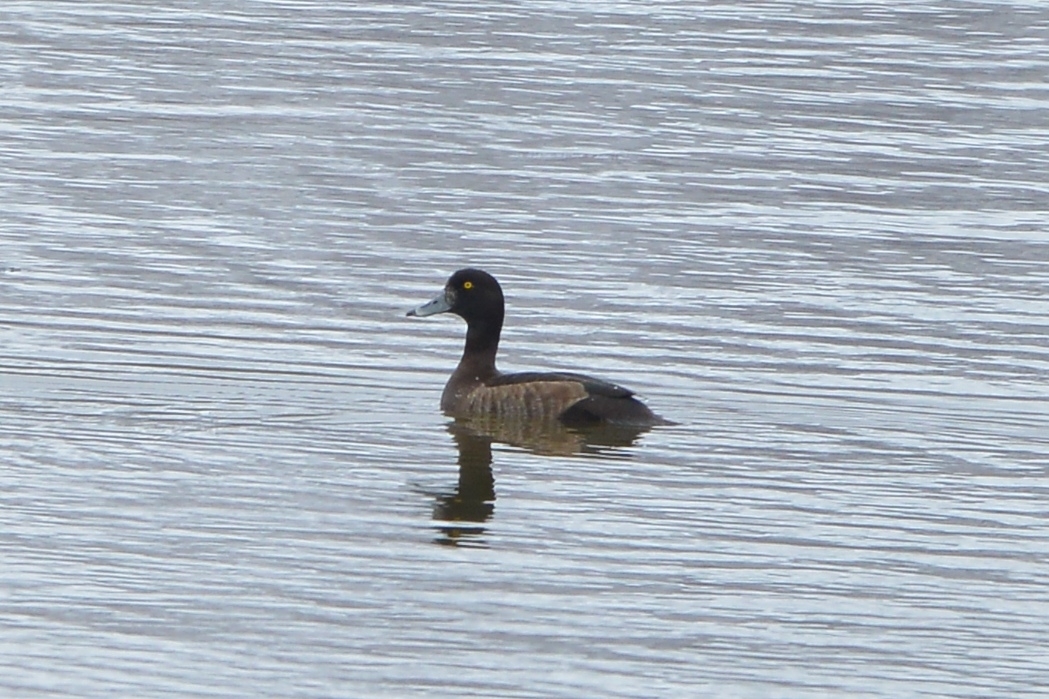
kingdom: Animalia
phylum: Chordata
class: Aves
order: Anseriformes
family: Anatidae
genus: Aythya
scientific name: Aythya fuligula
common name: Tufted duck
